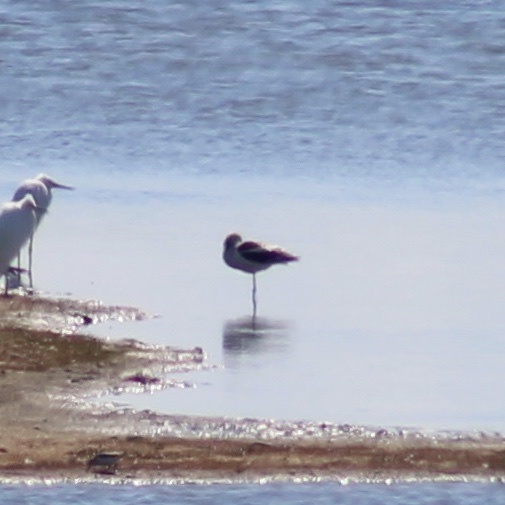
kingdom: Animalia
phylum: Chordata
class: Aves
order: Charadriiformes
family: Recurvirostridae
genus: Recurvirostra
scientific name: Recurvirostra americana
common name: American avocet
